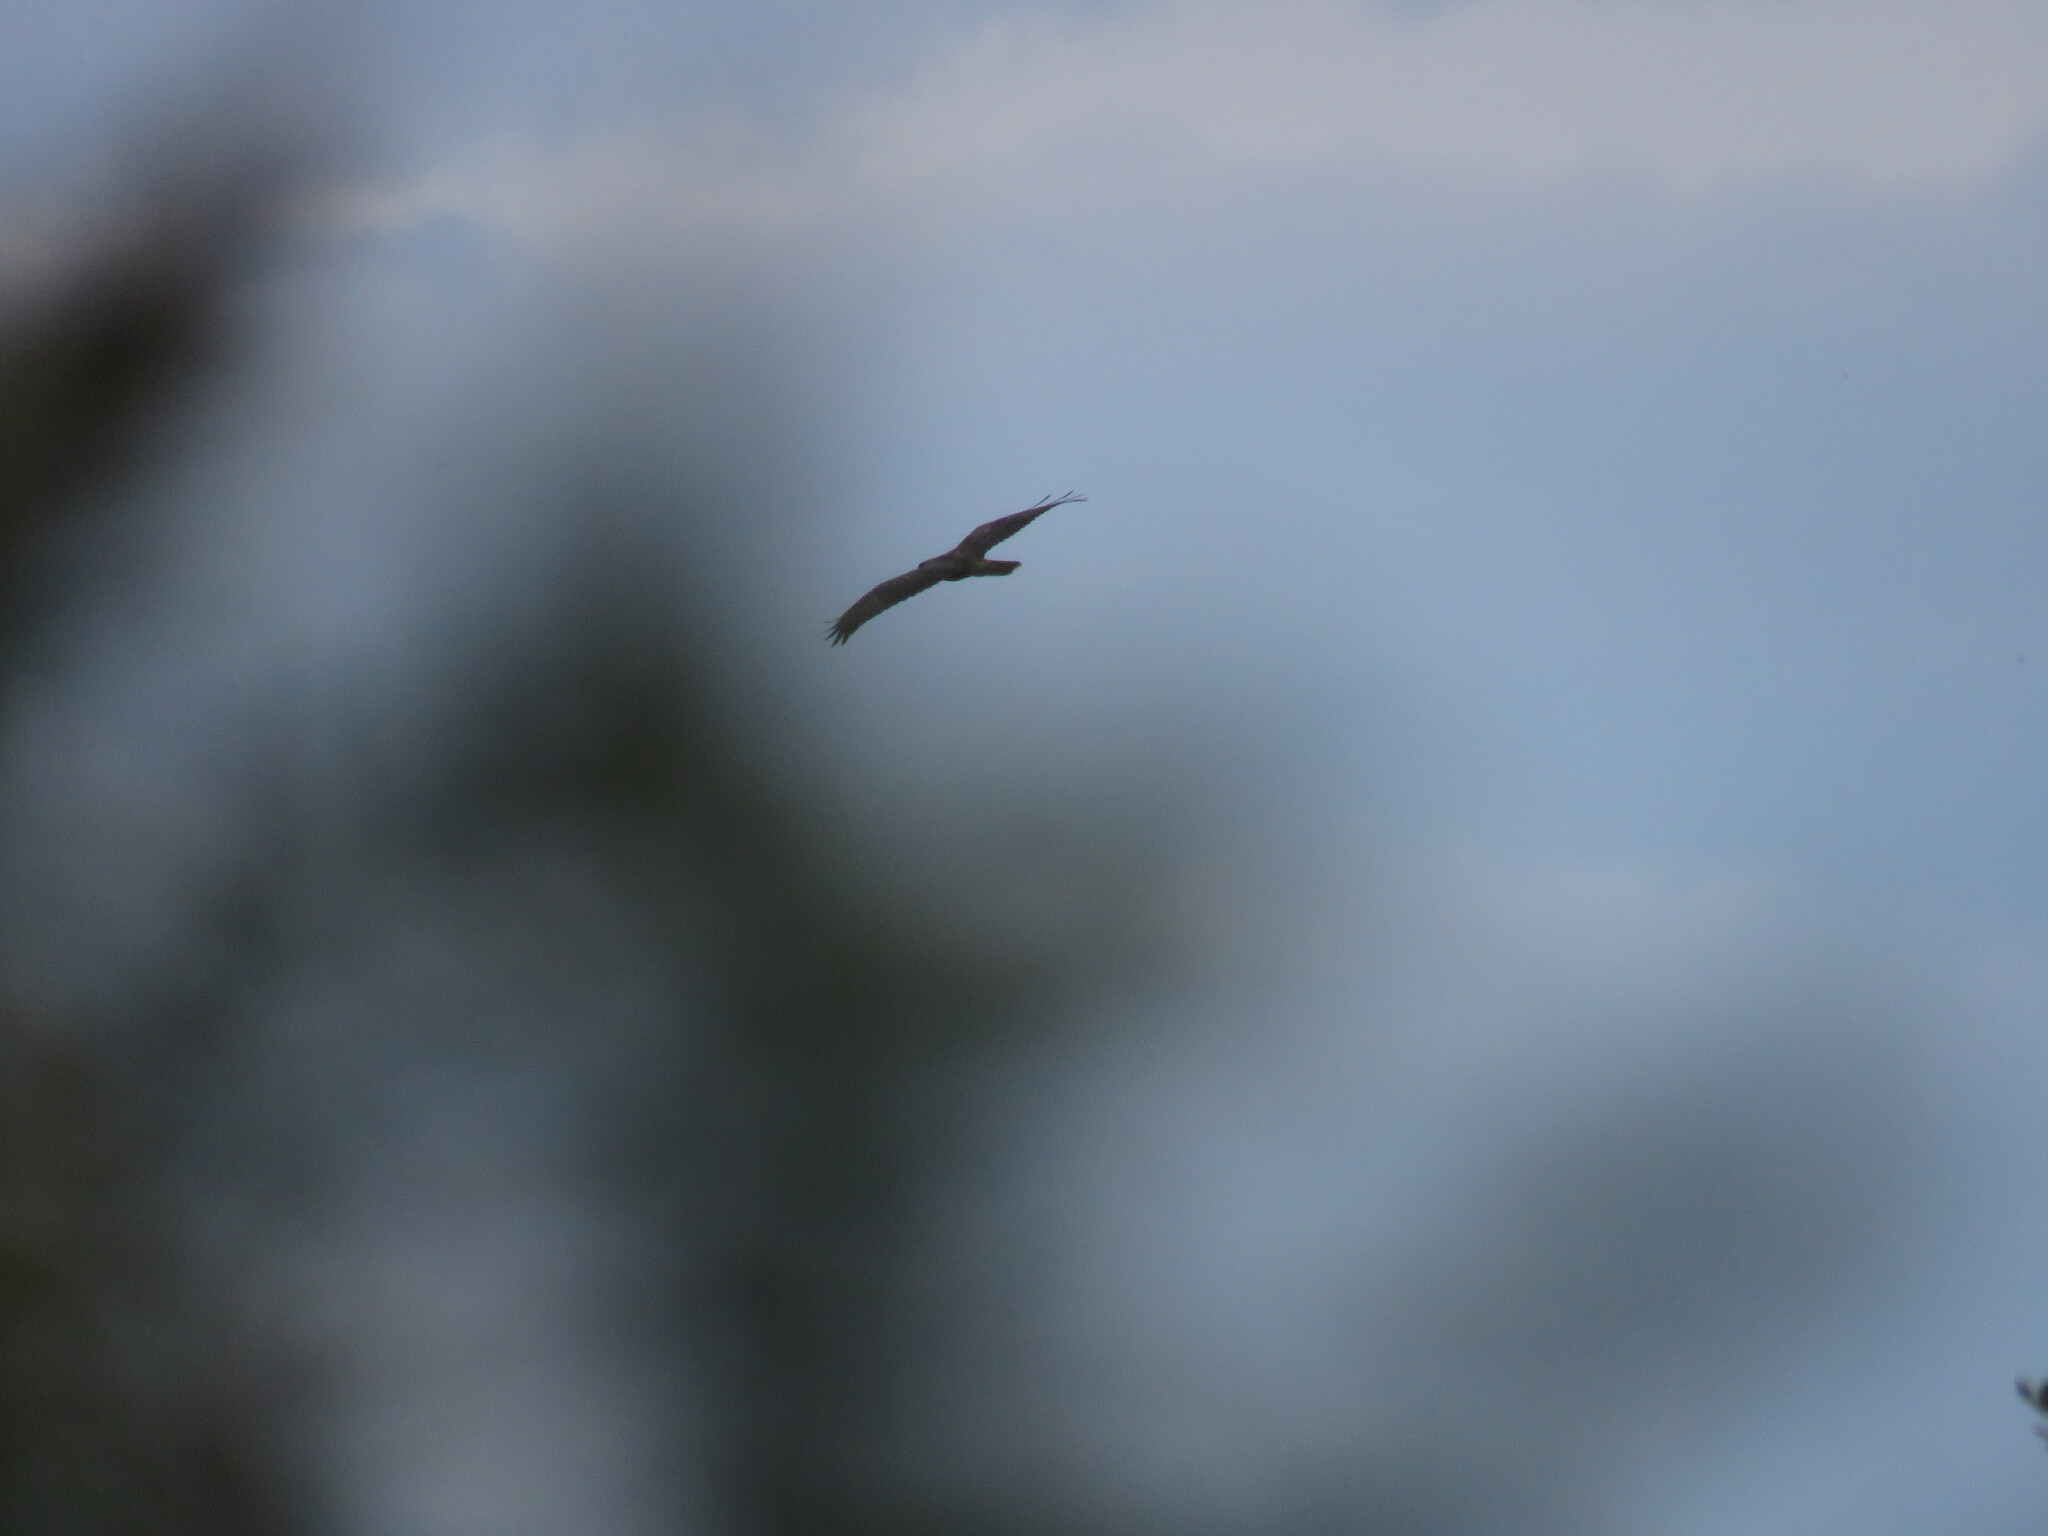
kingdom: Animalia
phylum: Chordata
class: Aves
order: Accipitriformes
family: Accipitridae
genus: Buteo
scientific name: Buteo buteo
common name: Common buzzard
